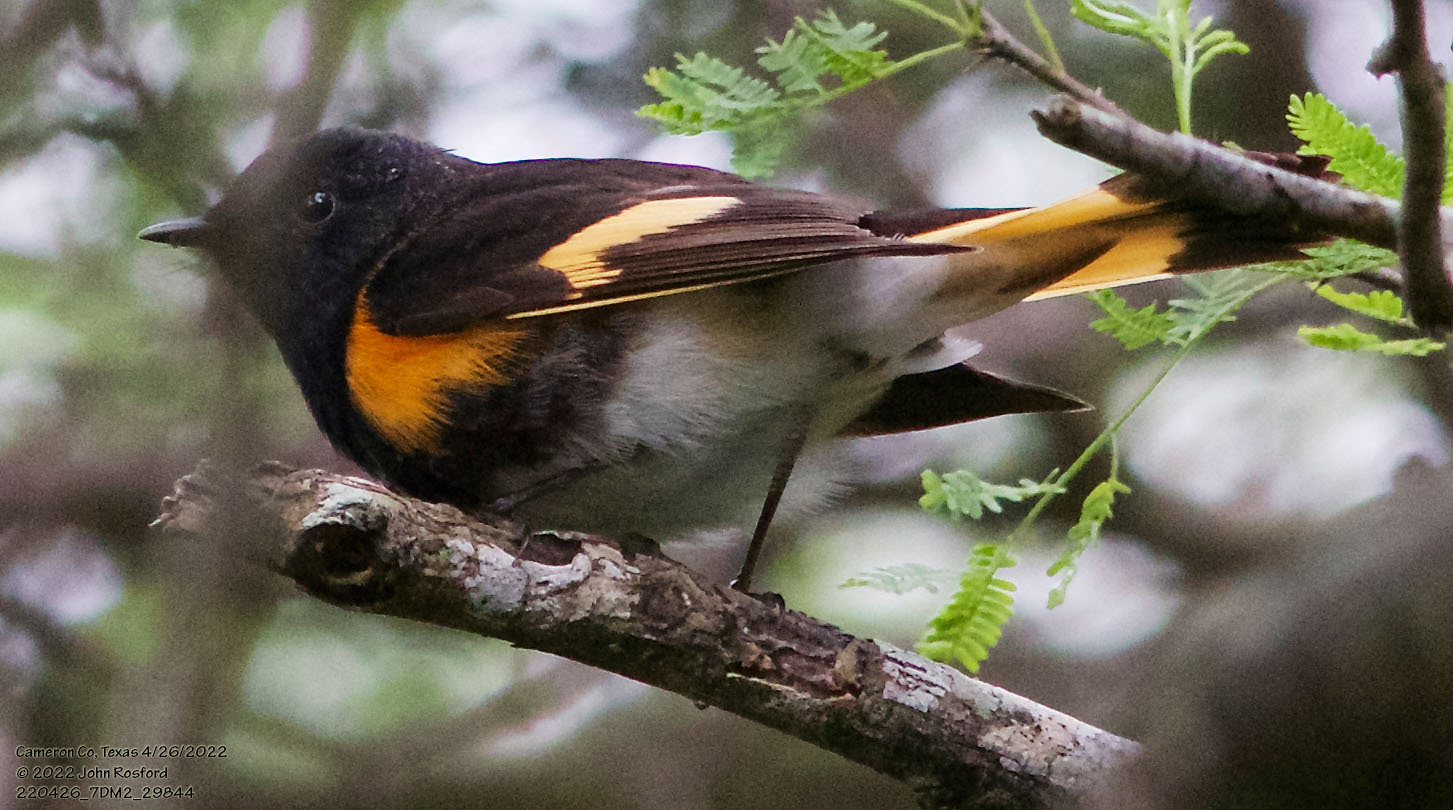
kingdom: Animalia
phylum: Chordata
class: Aves
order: Passeriformes
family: Parulidae
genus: Setophaga
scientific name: Setophaga ruticilla
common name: American redstart
